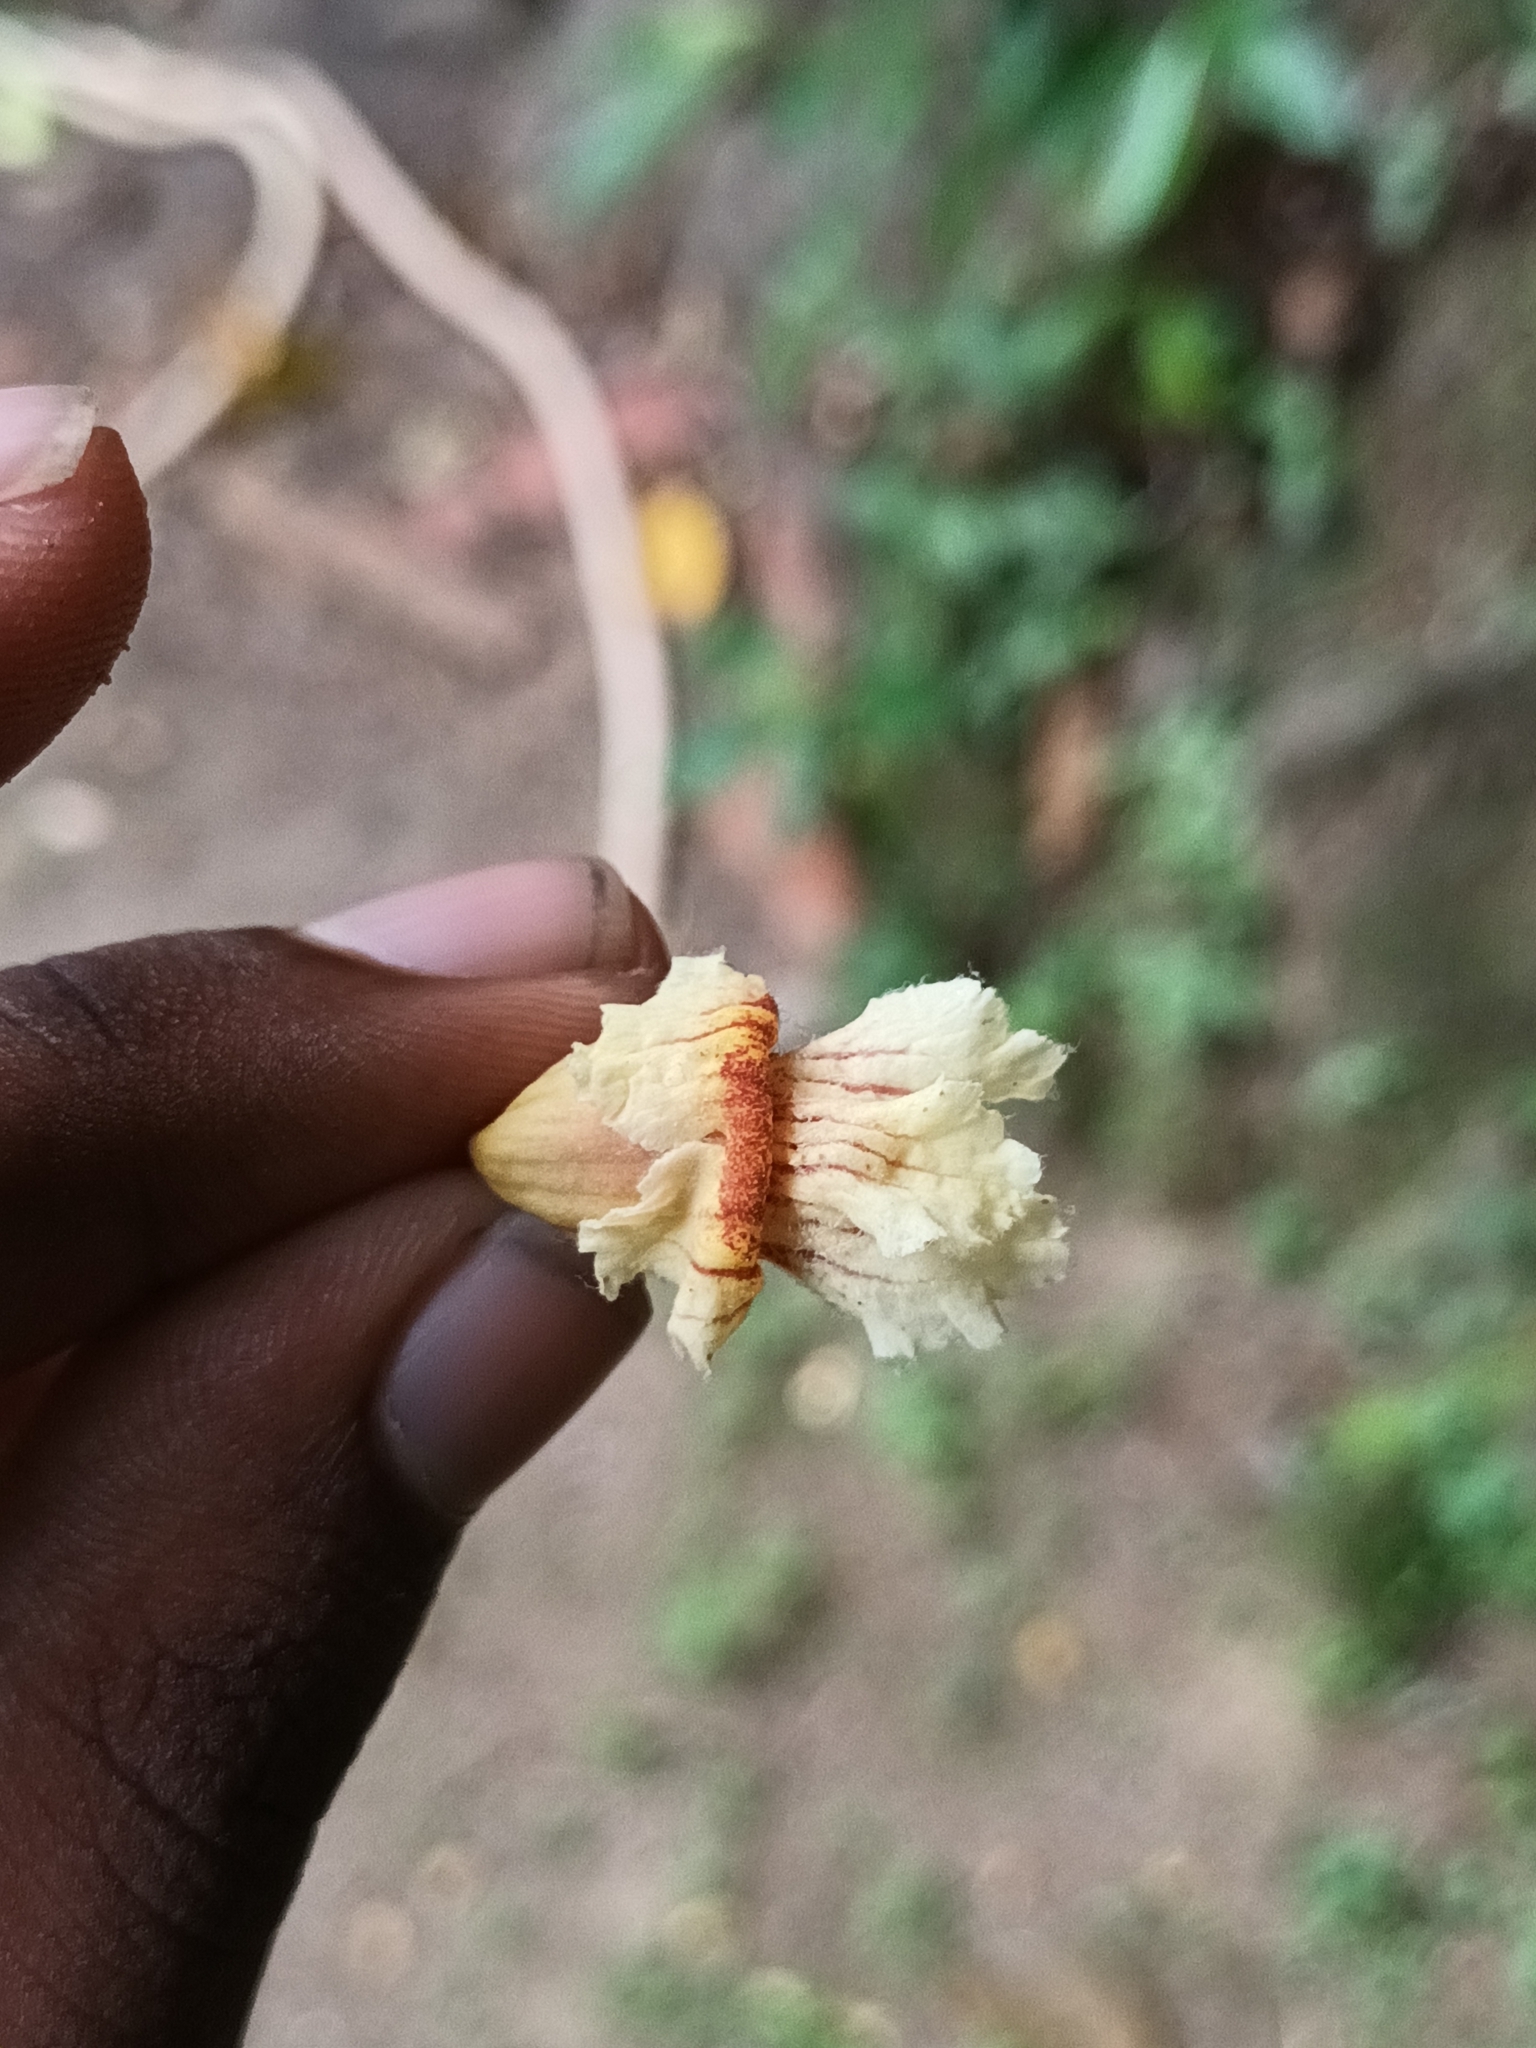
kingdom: Plantae
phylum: Tracheophyta
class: Magnoliopsida
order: Lamiales
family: Bignoniaceae
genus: Stereospermum
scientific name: Stereospermum colais
